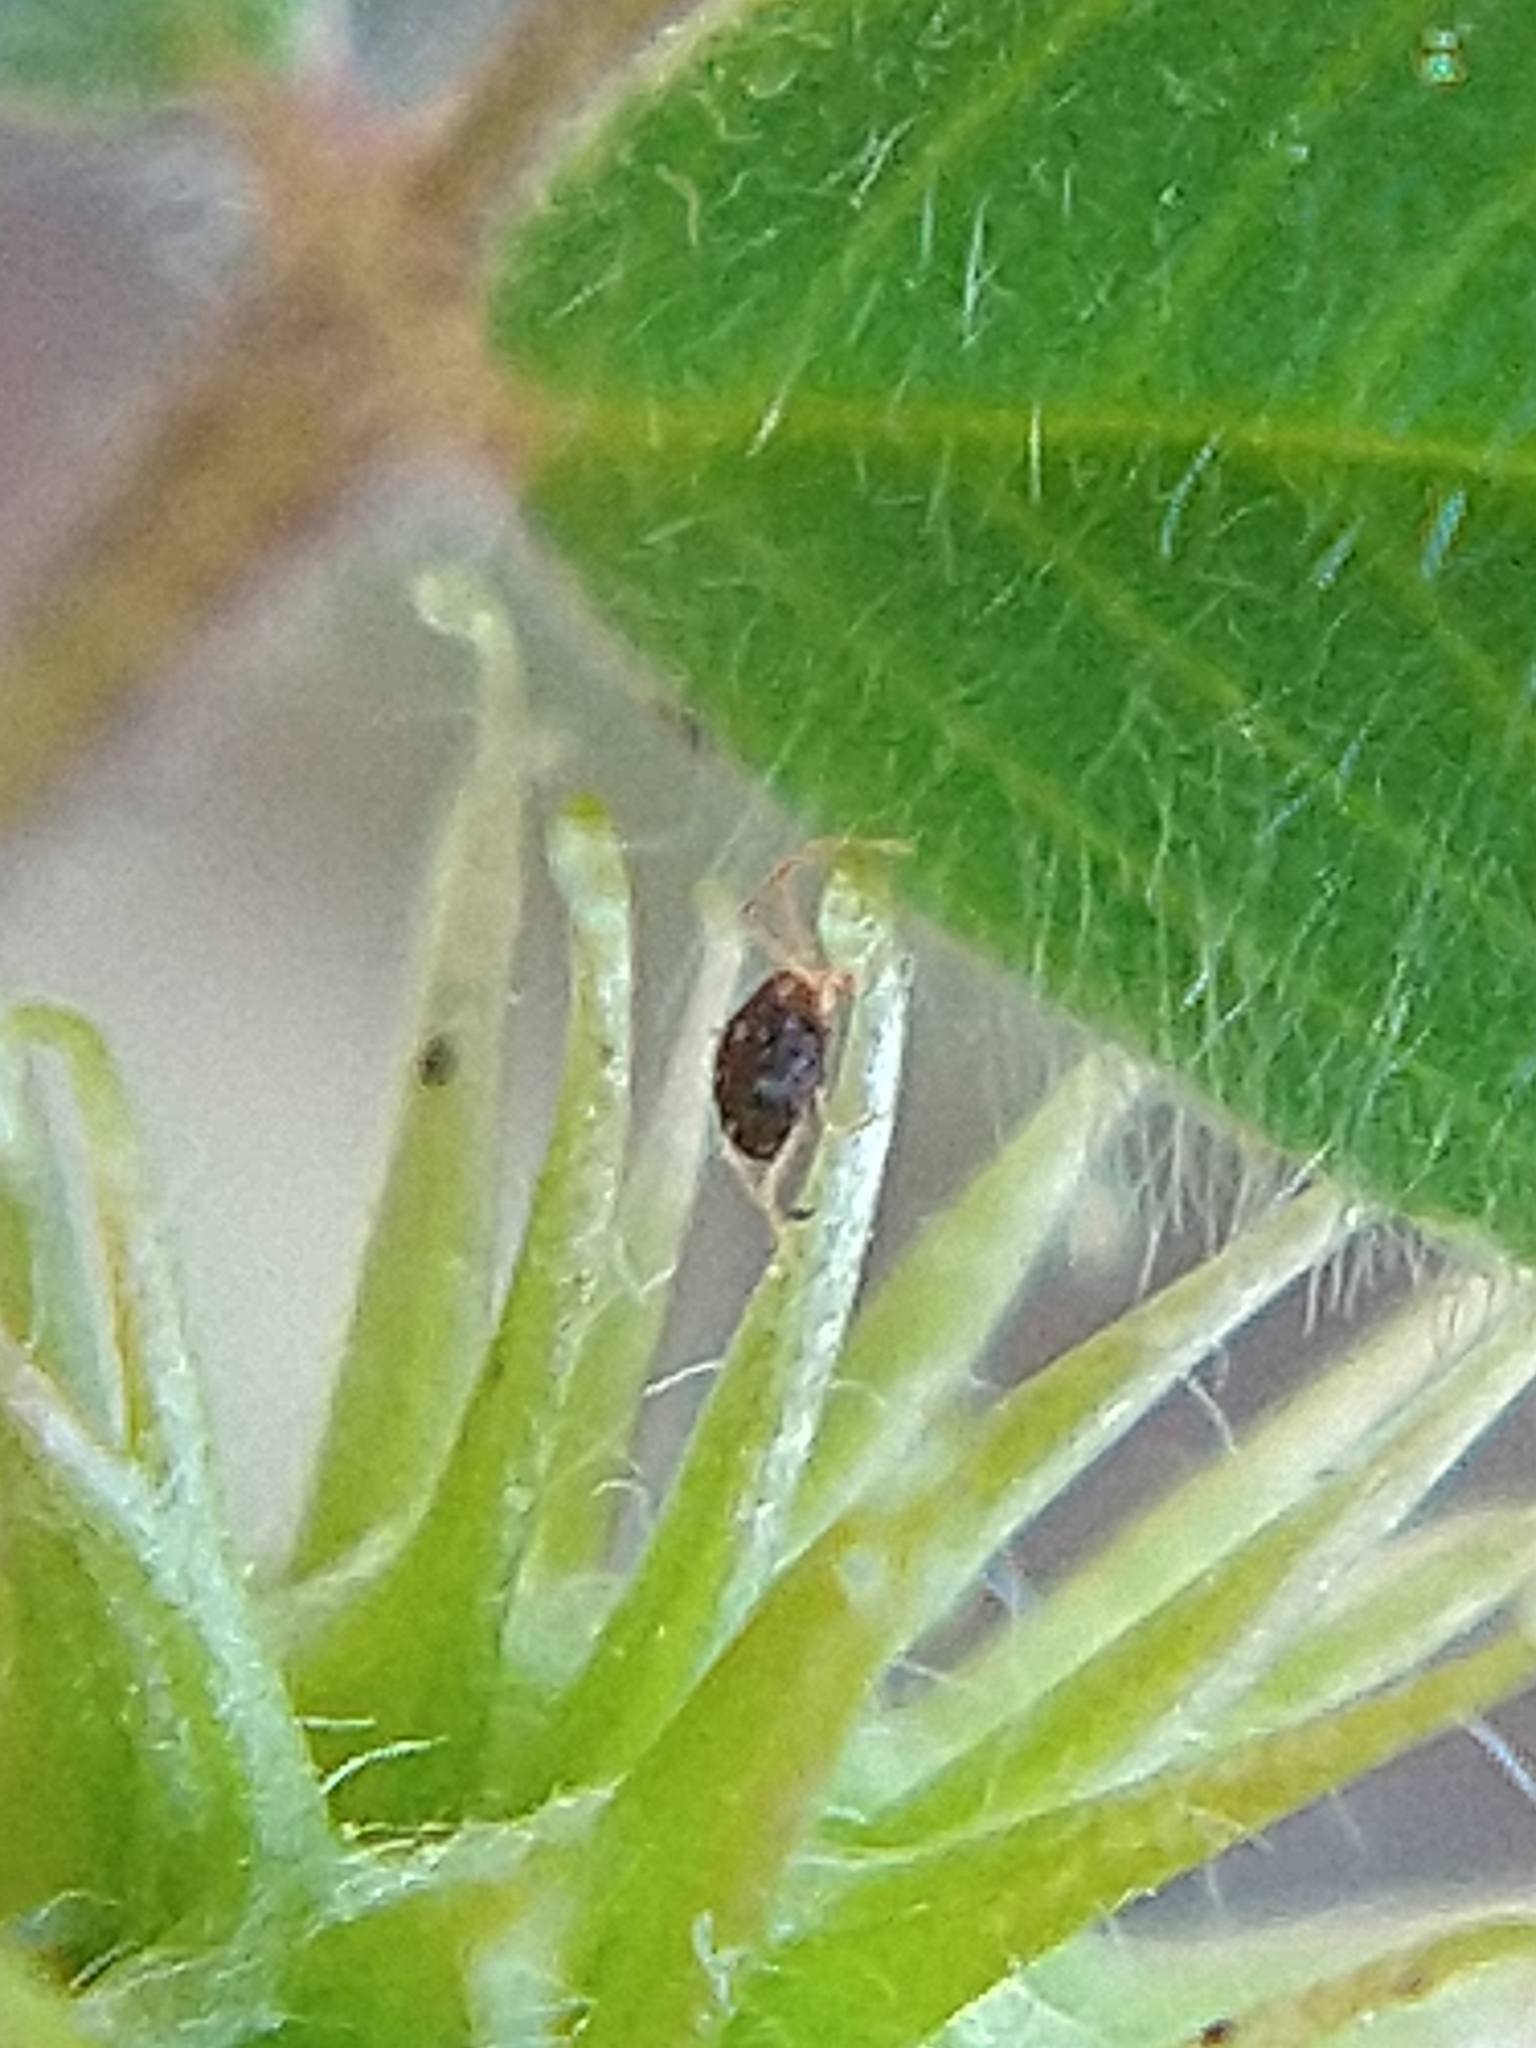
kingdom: Animalia
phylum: Arthropoda
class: Arachnida
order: Trombidiformes
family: Tetranychidae
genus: Bryobia
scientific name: Bryobia
